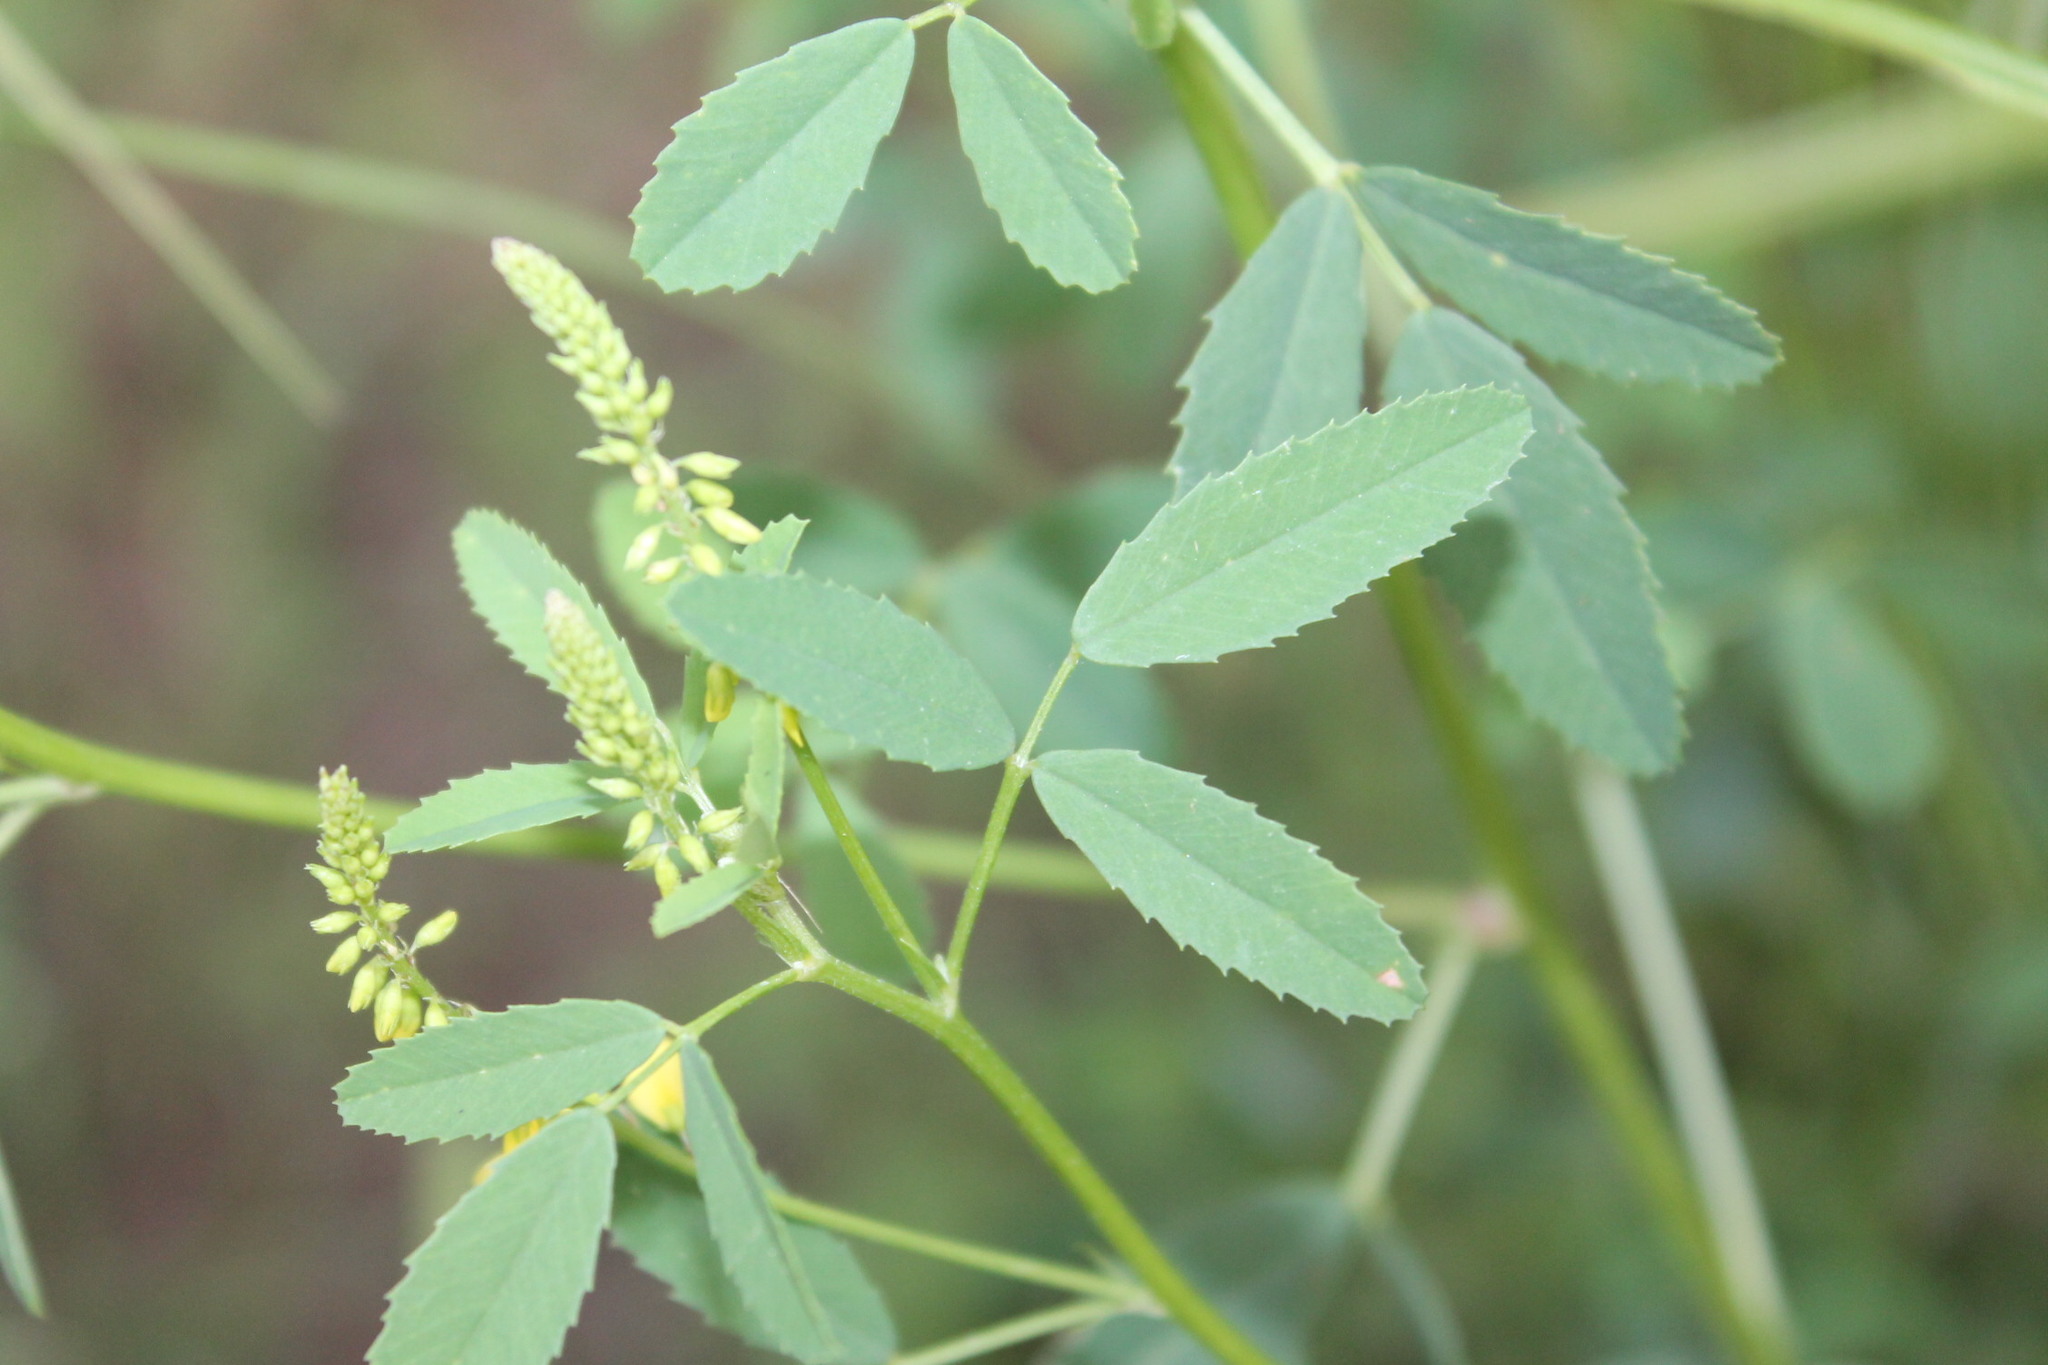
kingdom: Plantae
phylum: Tracheophyta
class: Magnoliopsida
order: Fabales
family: Fabaceae
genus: Melilotus
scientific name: Melilotus officinalis
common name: Sweetclover
